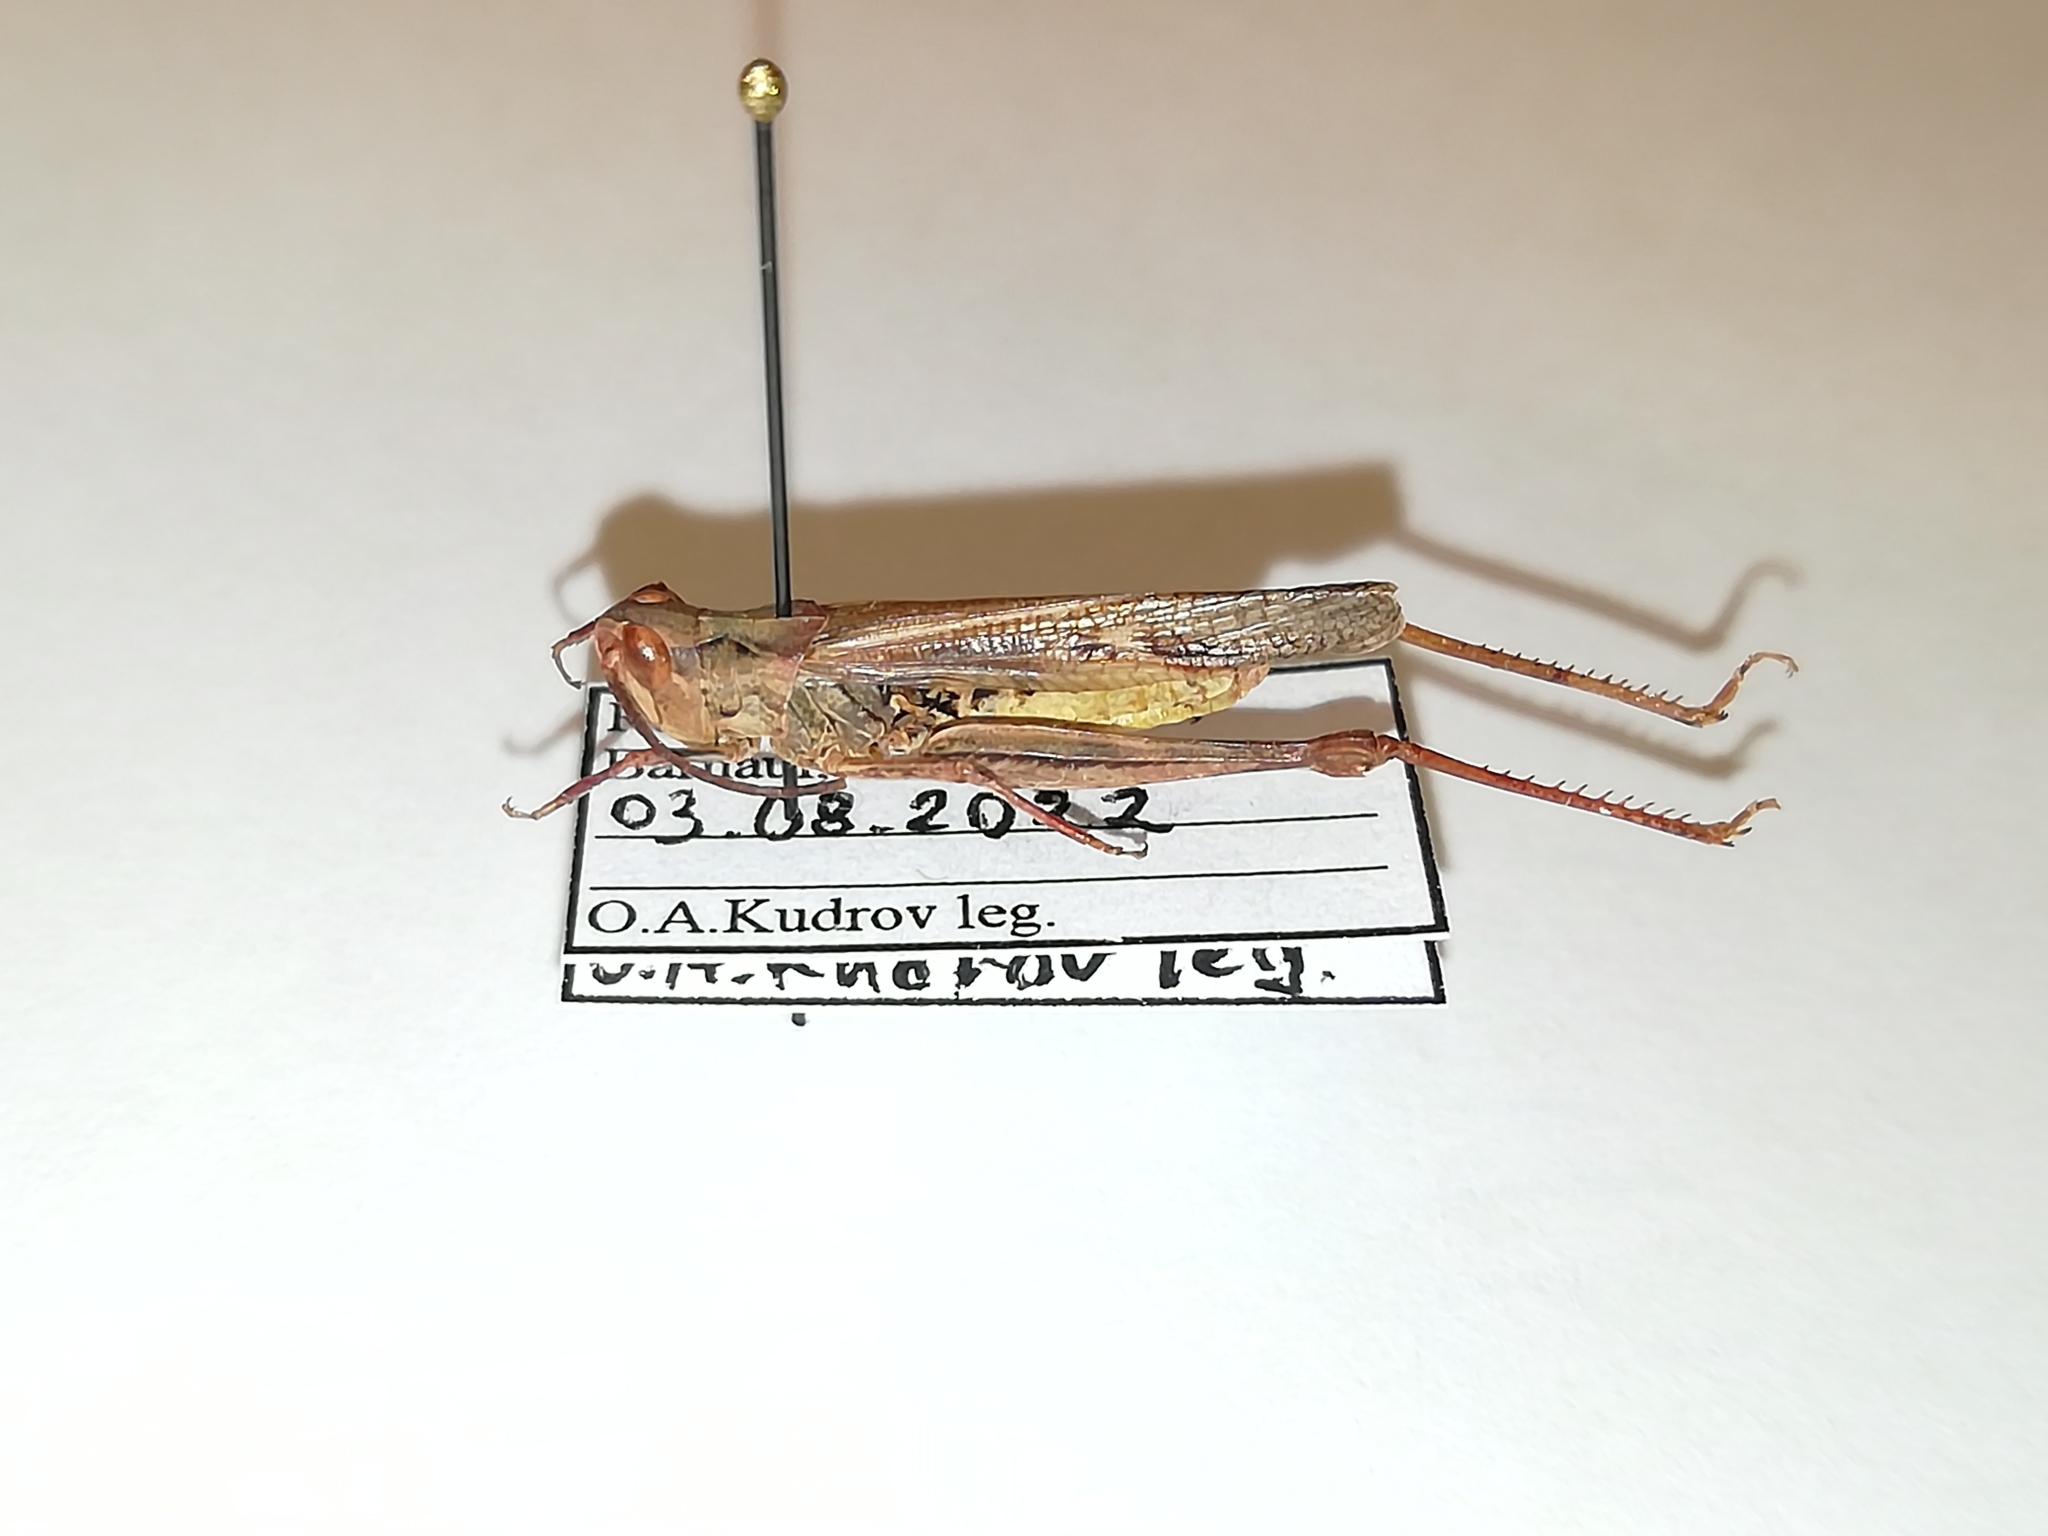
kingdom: Animalia
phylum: Arthropoda
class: Insecta
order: Orthoptera
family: Acrididae
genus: Chorthippus
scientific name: Chorthippus miramae
